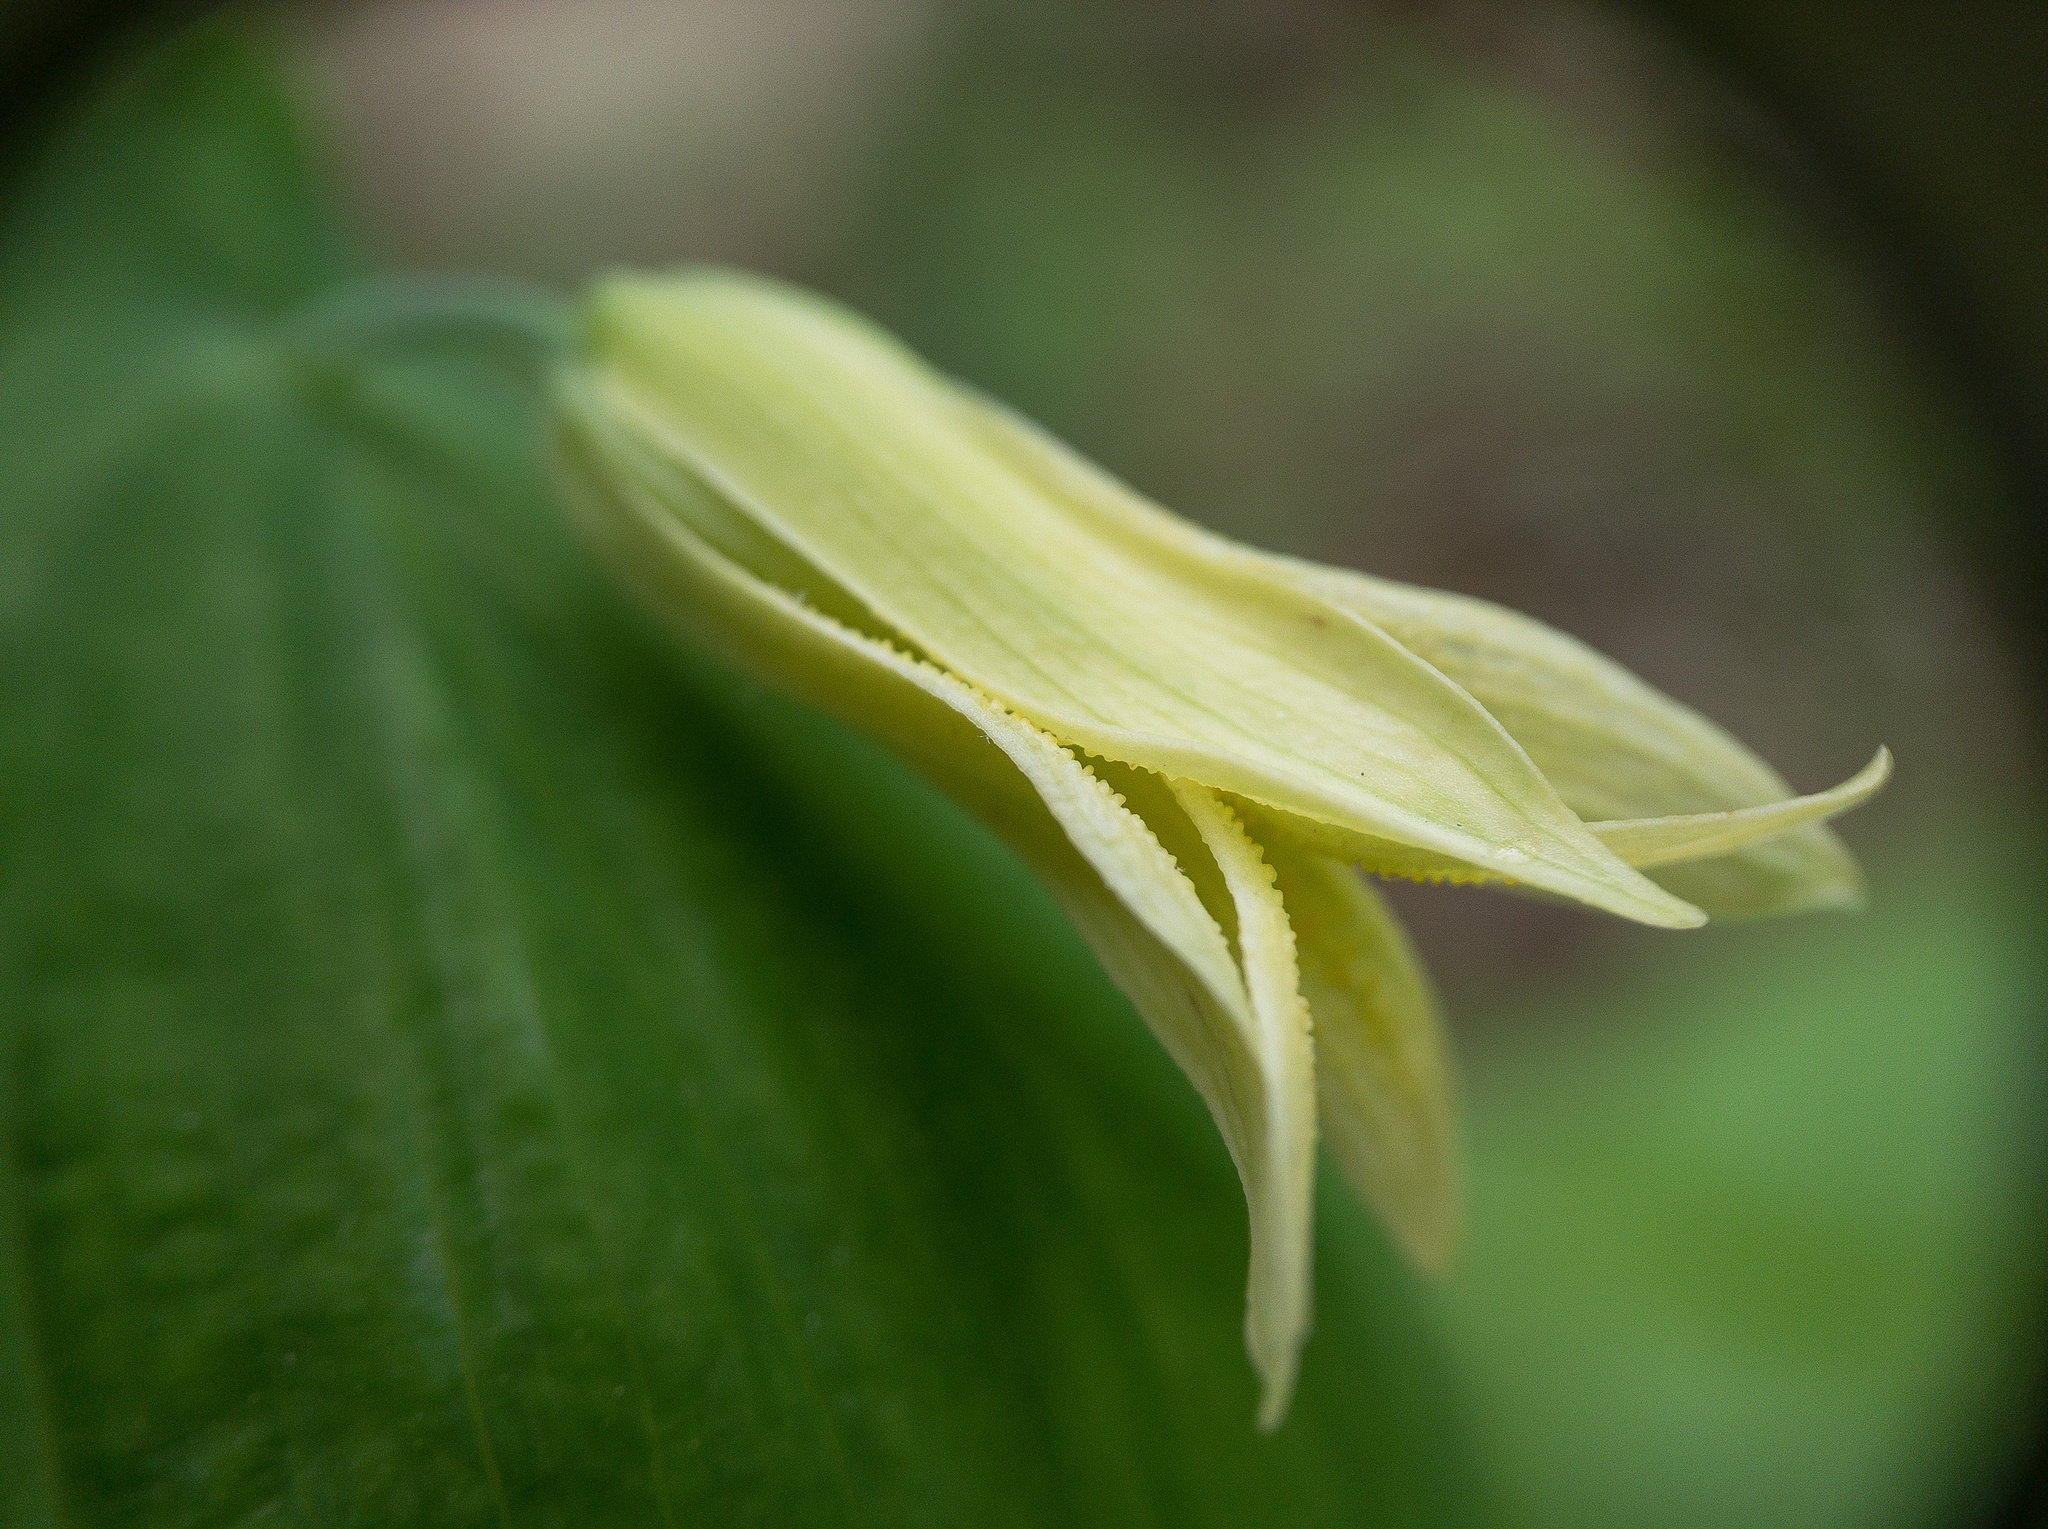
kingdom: Plantae
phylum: Tracheophyta
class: Liliopsida
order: Liliales
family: Colchicaceae
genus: Uvularia
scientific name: Uvularia perfoliata
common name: Perfoliate bellwort
